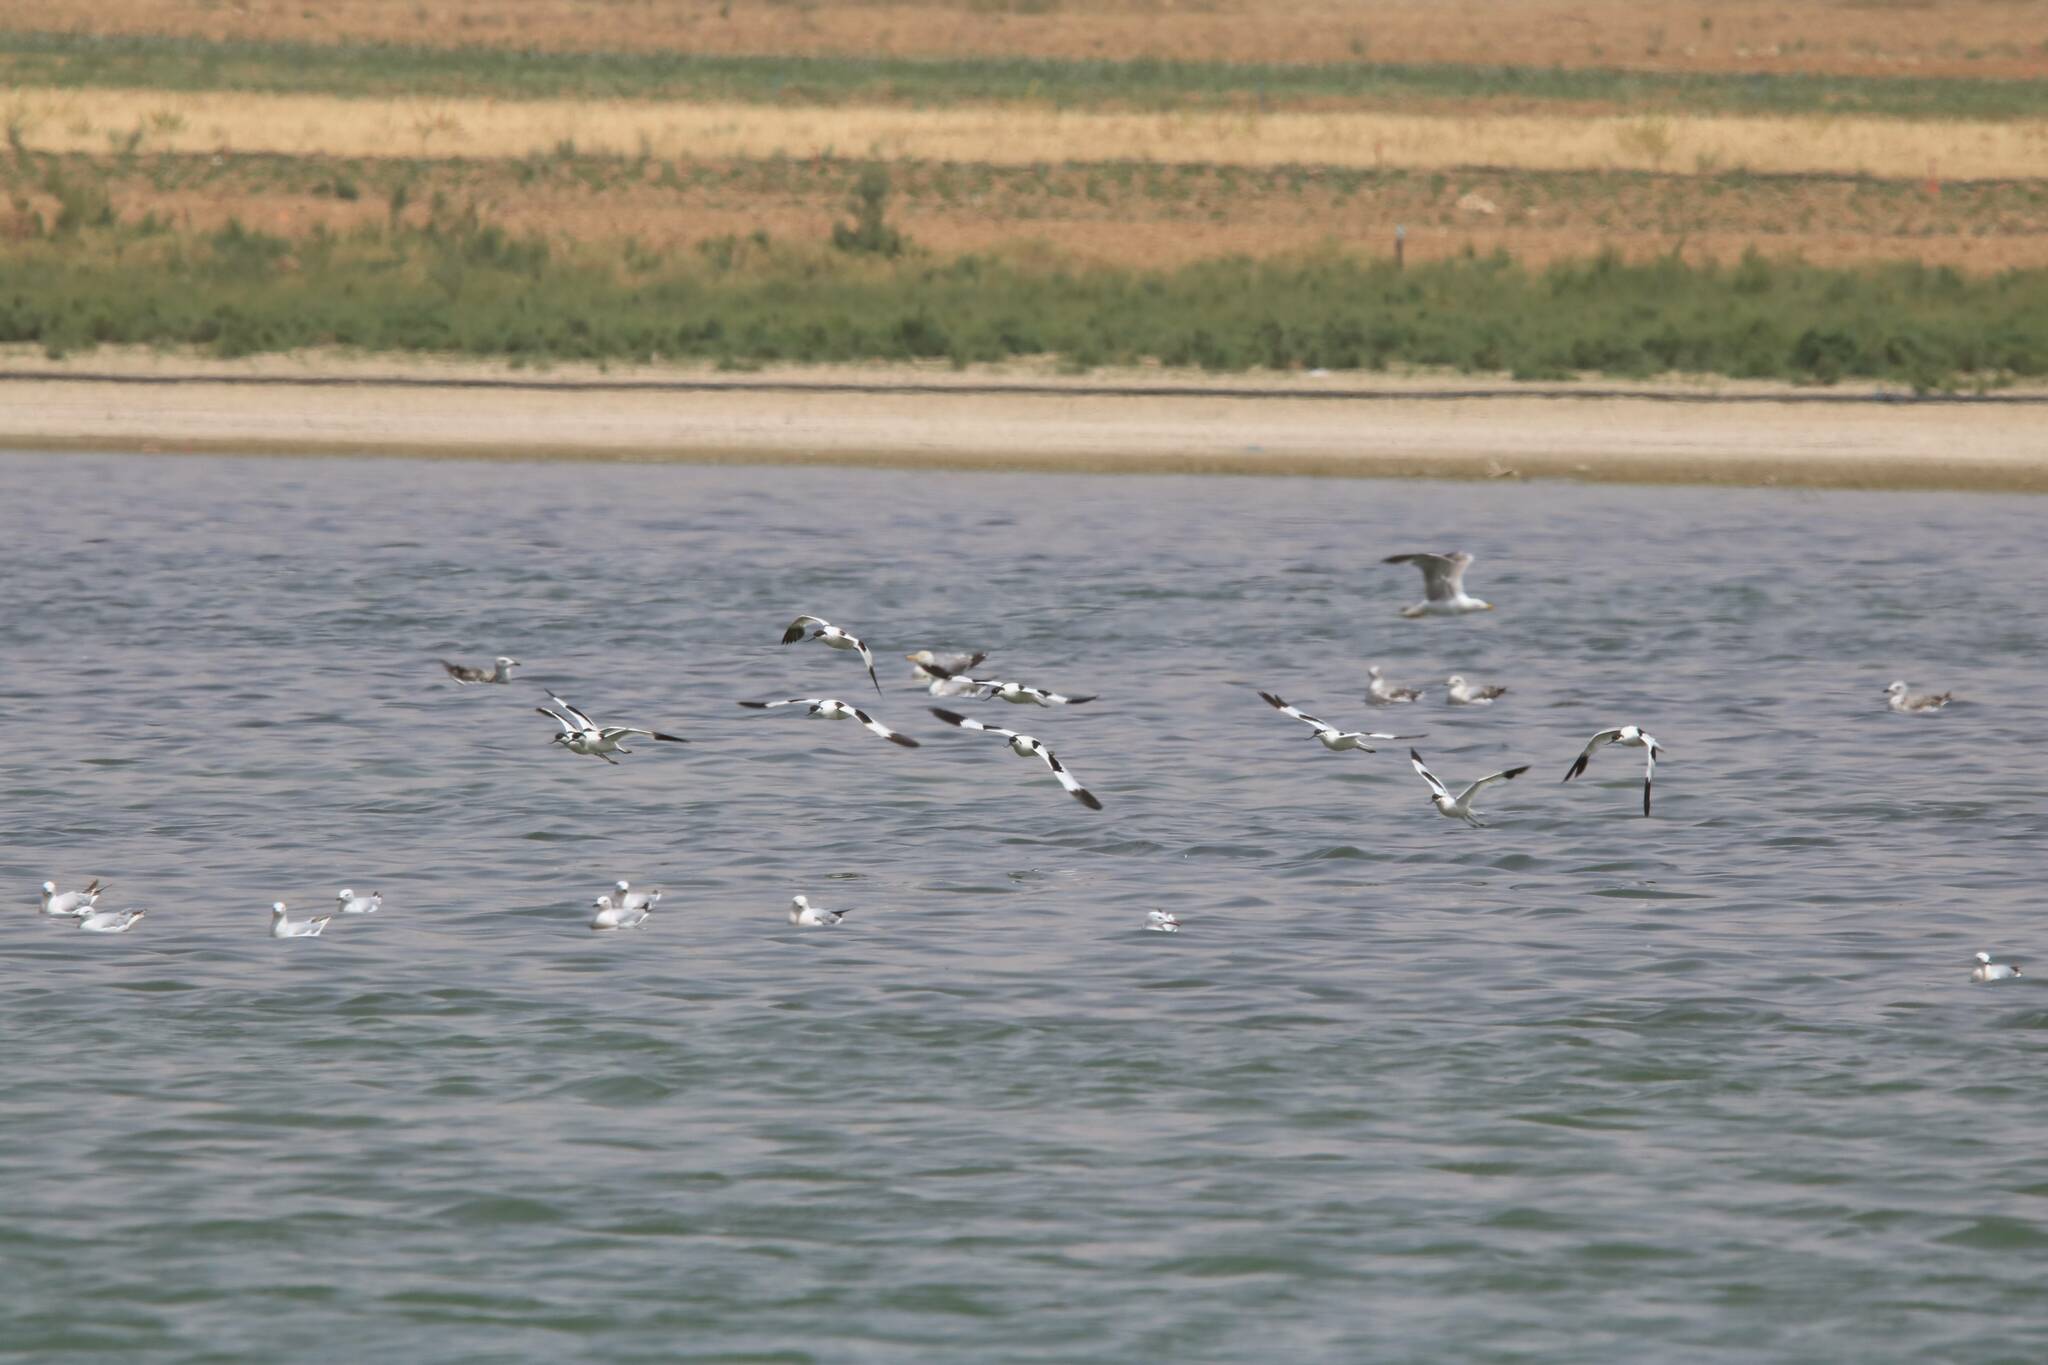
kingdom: Animalia
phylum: Chordata
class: Aves
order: Charadriiformes
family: Recurvirostridae
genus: Recurvirostra
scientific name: Recurvirostra avosetta
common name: Pied avocet
